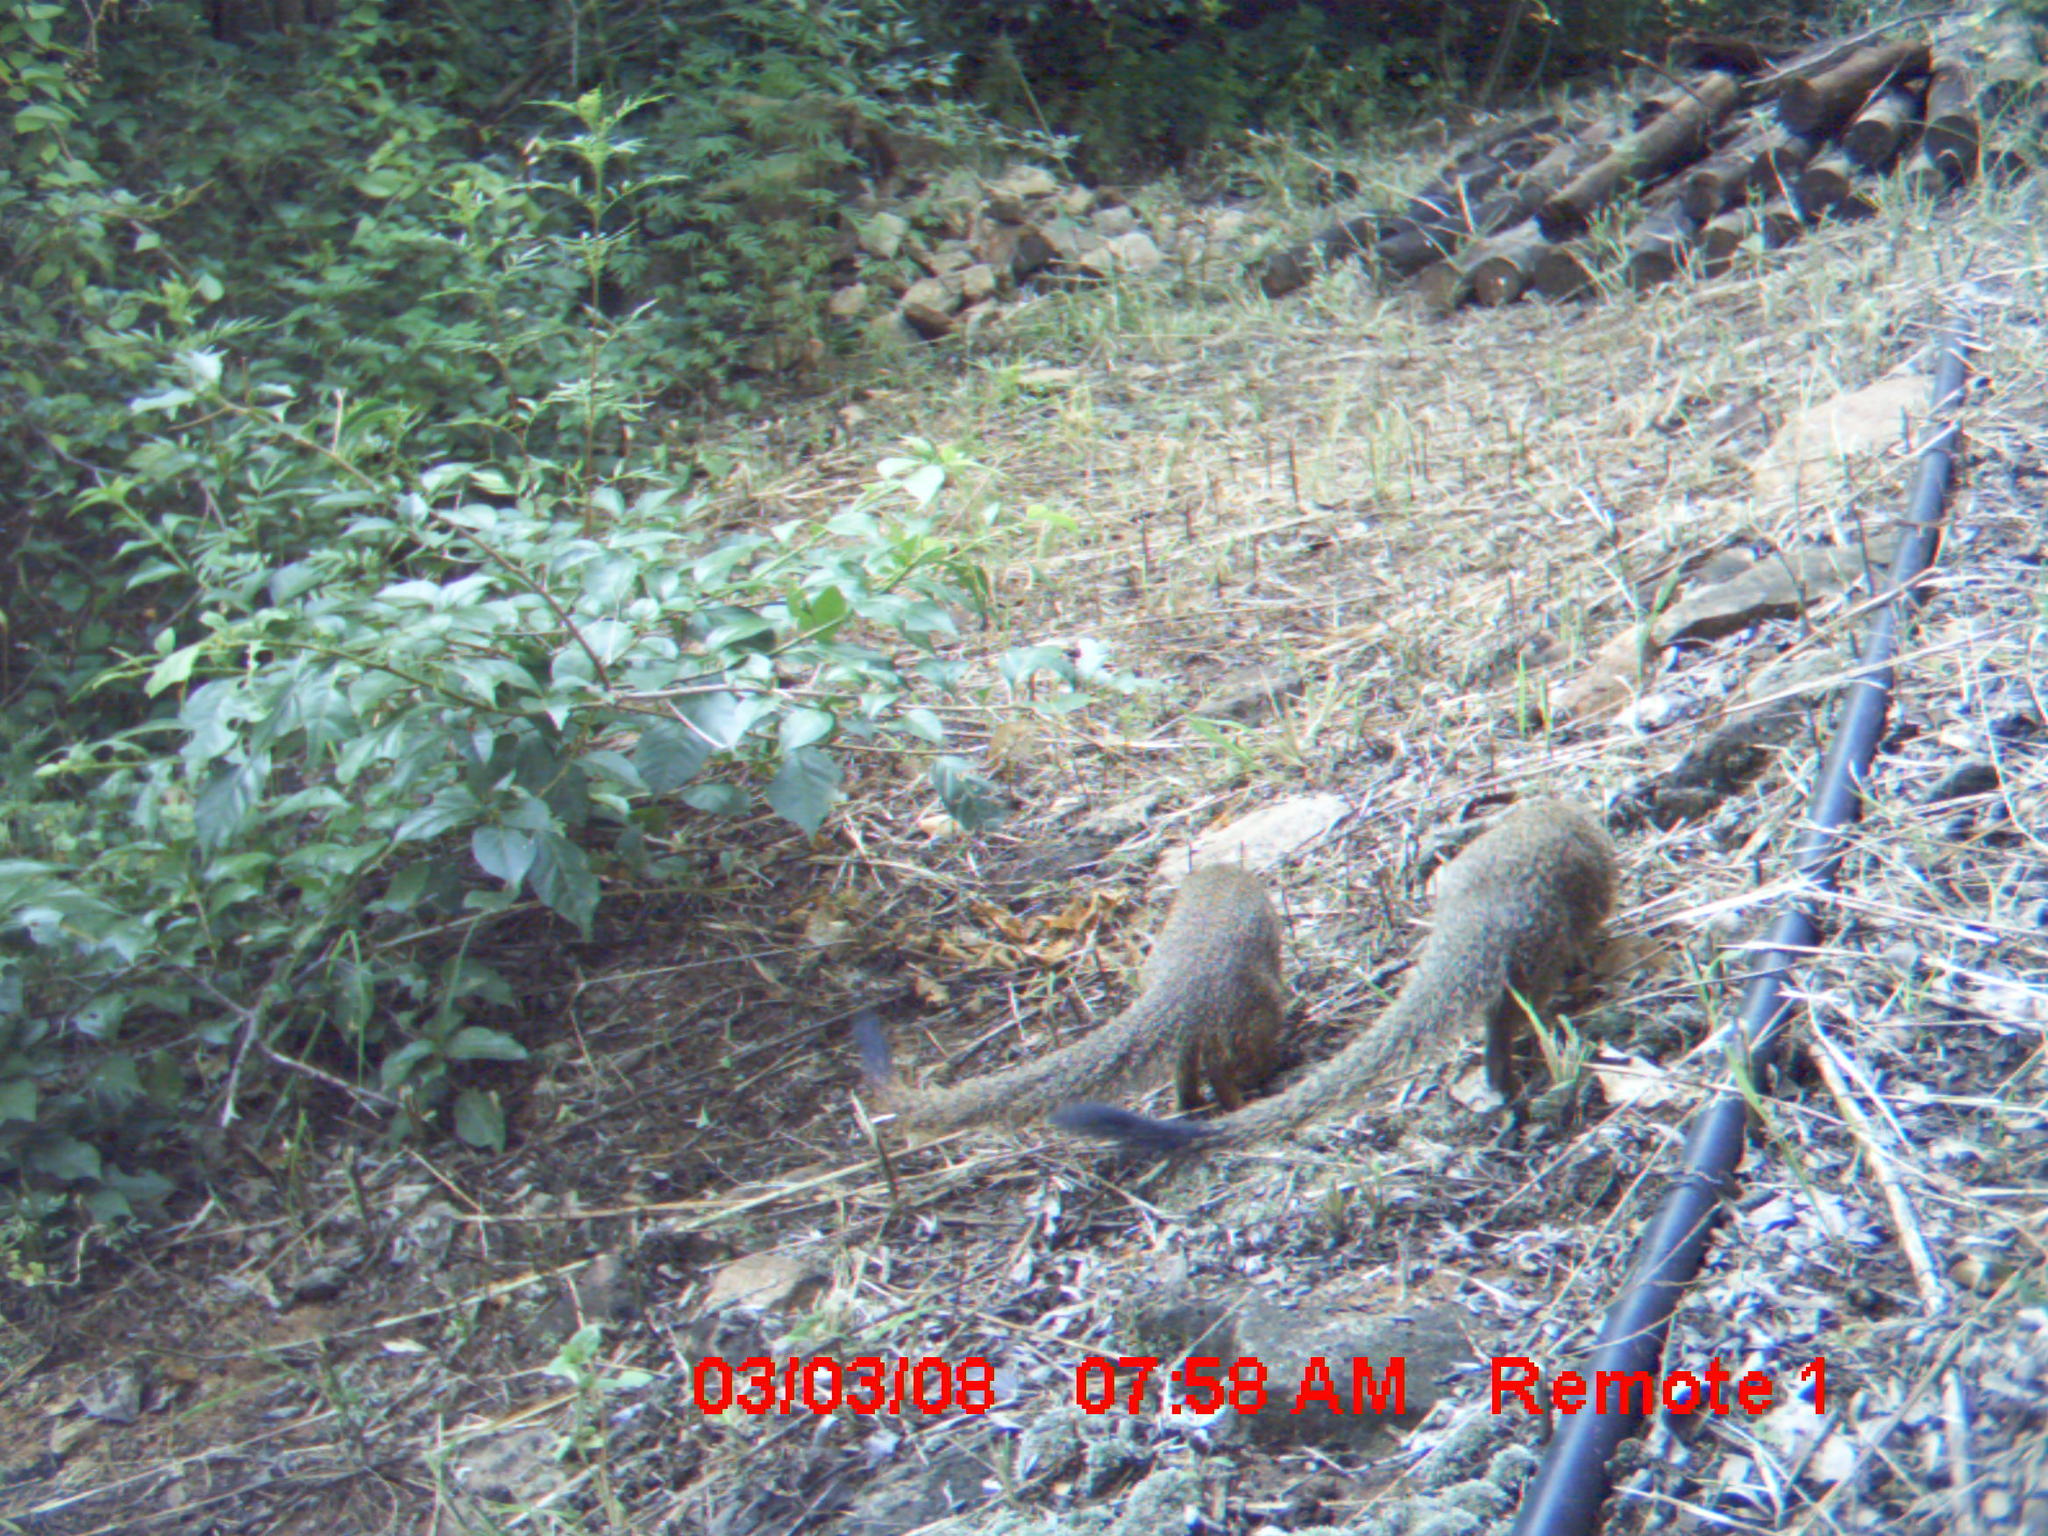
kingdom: Animalia
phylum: Chordata
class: Mammalia
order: Carnivora
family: Herpestidae
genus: Galerella
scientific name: Galerella sanguinea
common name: Slender mongoose
